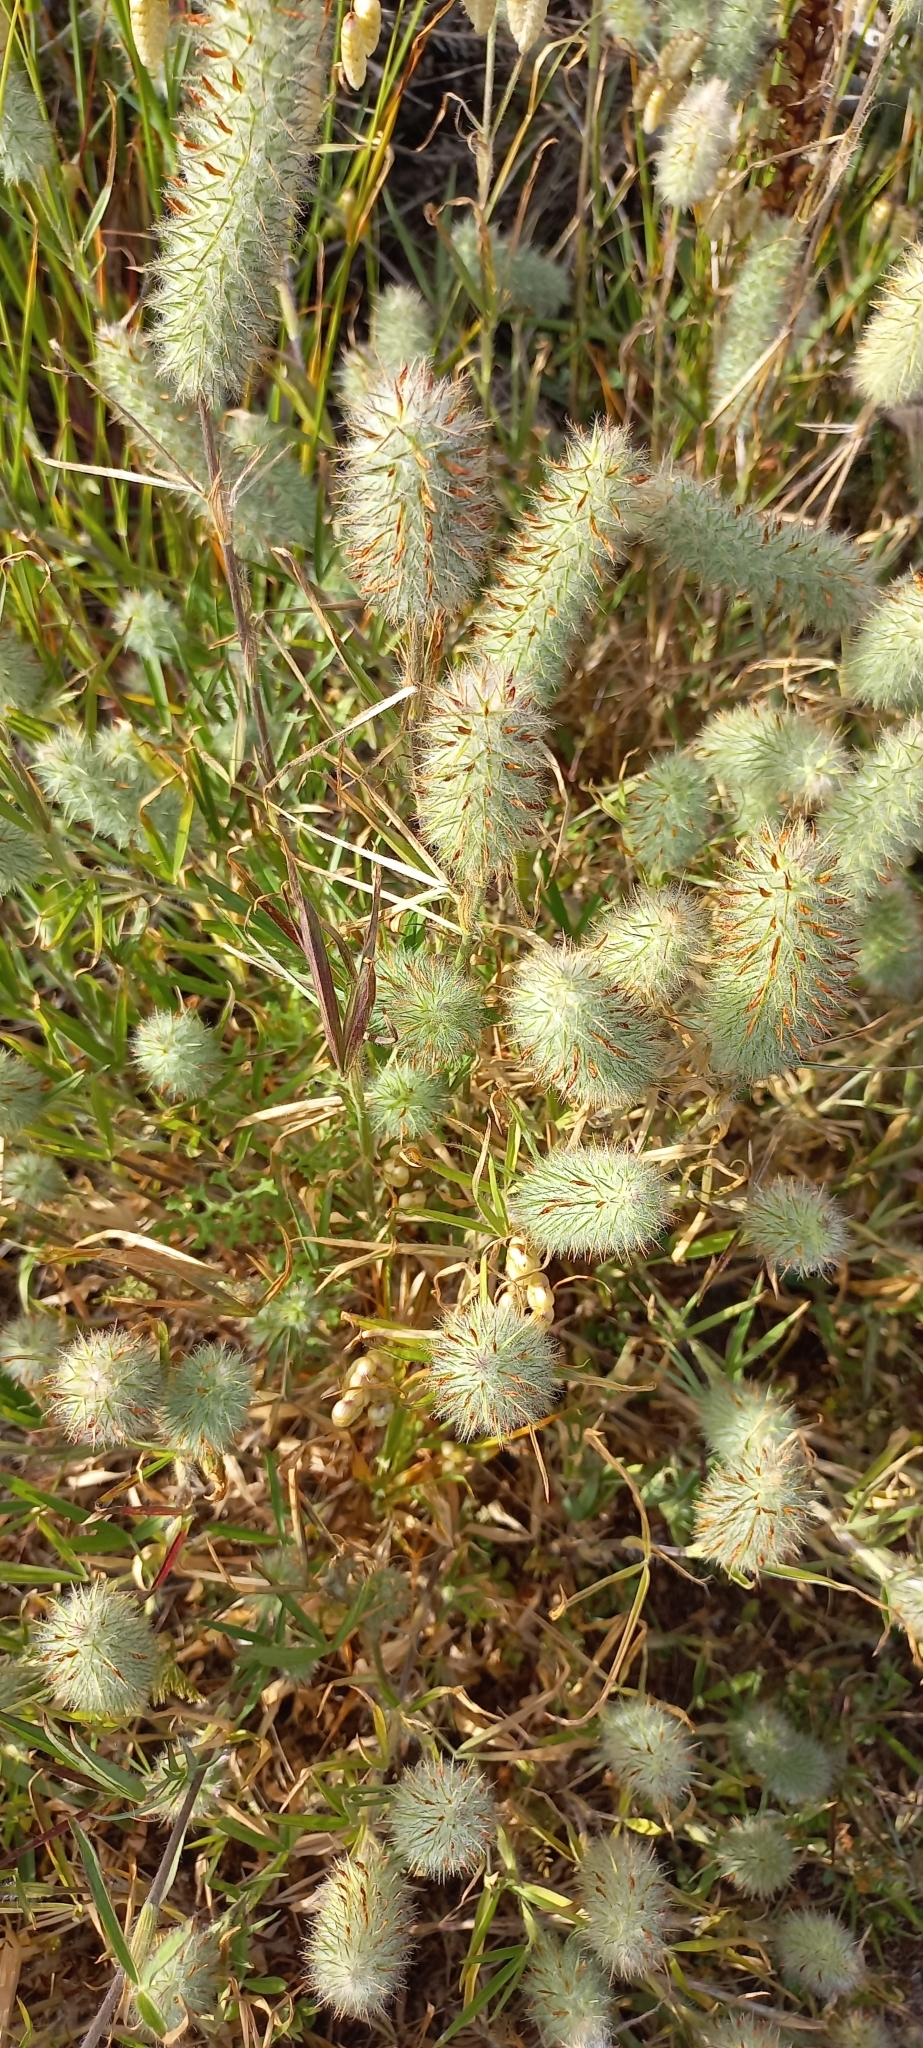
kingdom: Plantae
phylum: Tracheophyta
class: Magnoliopsida
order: Fabales
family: Fabaceae
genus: Trifolium
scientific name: Trifolium angustifolium
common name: Narrow clover
